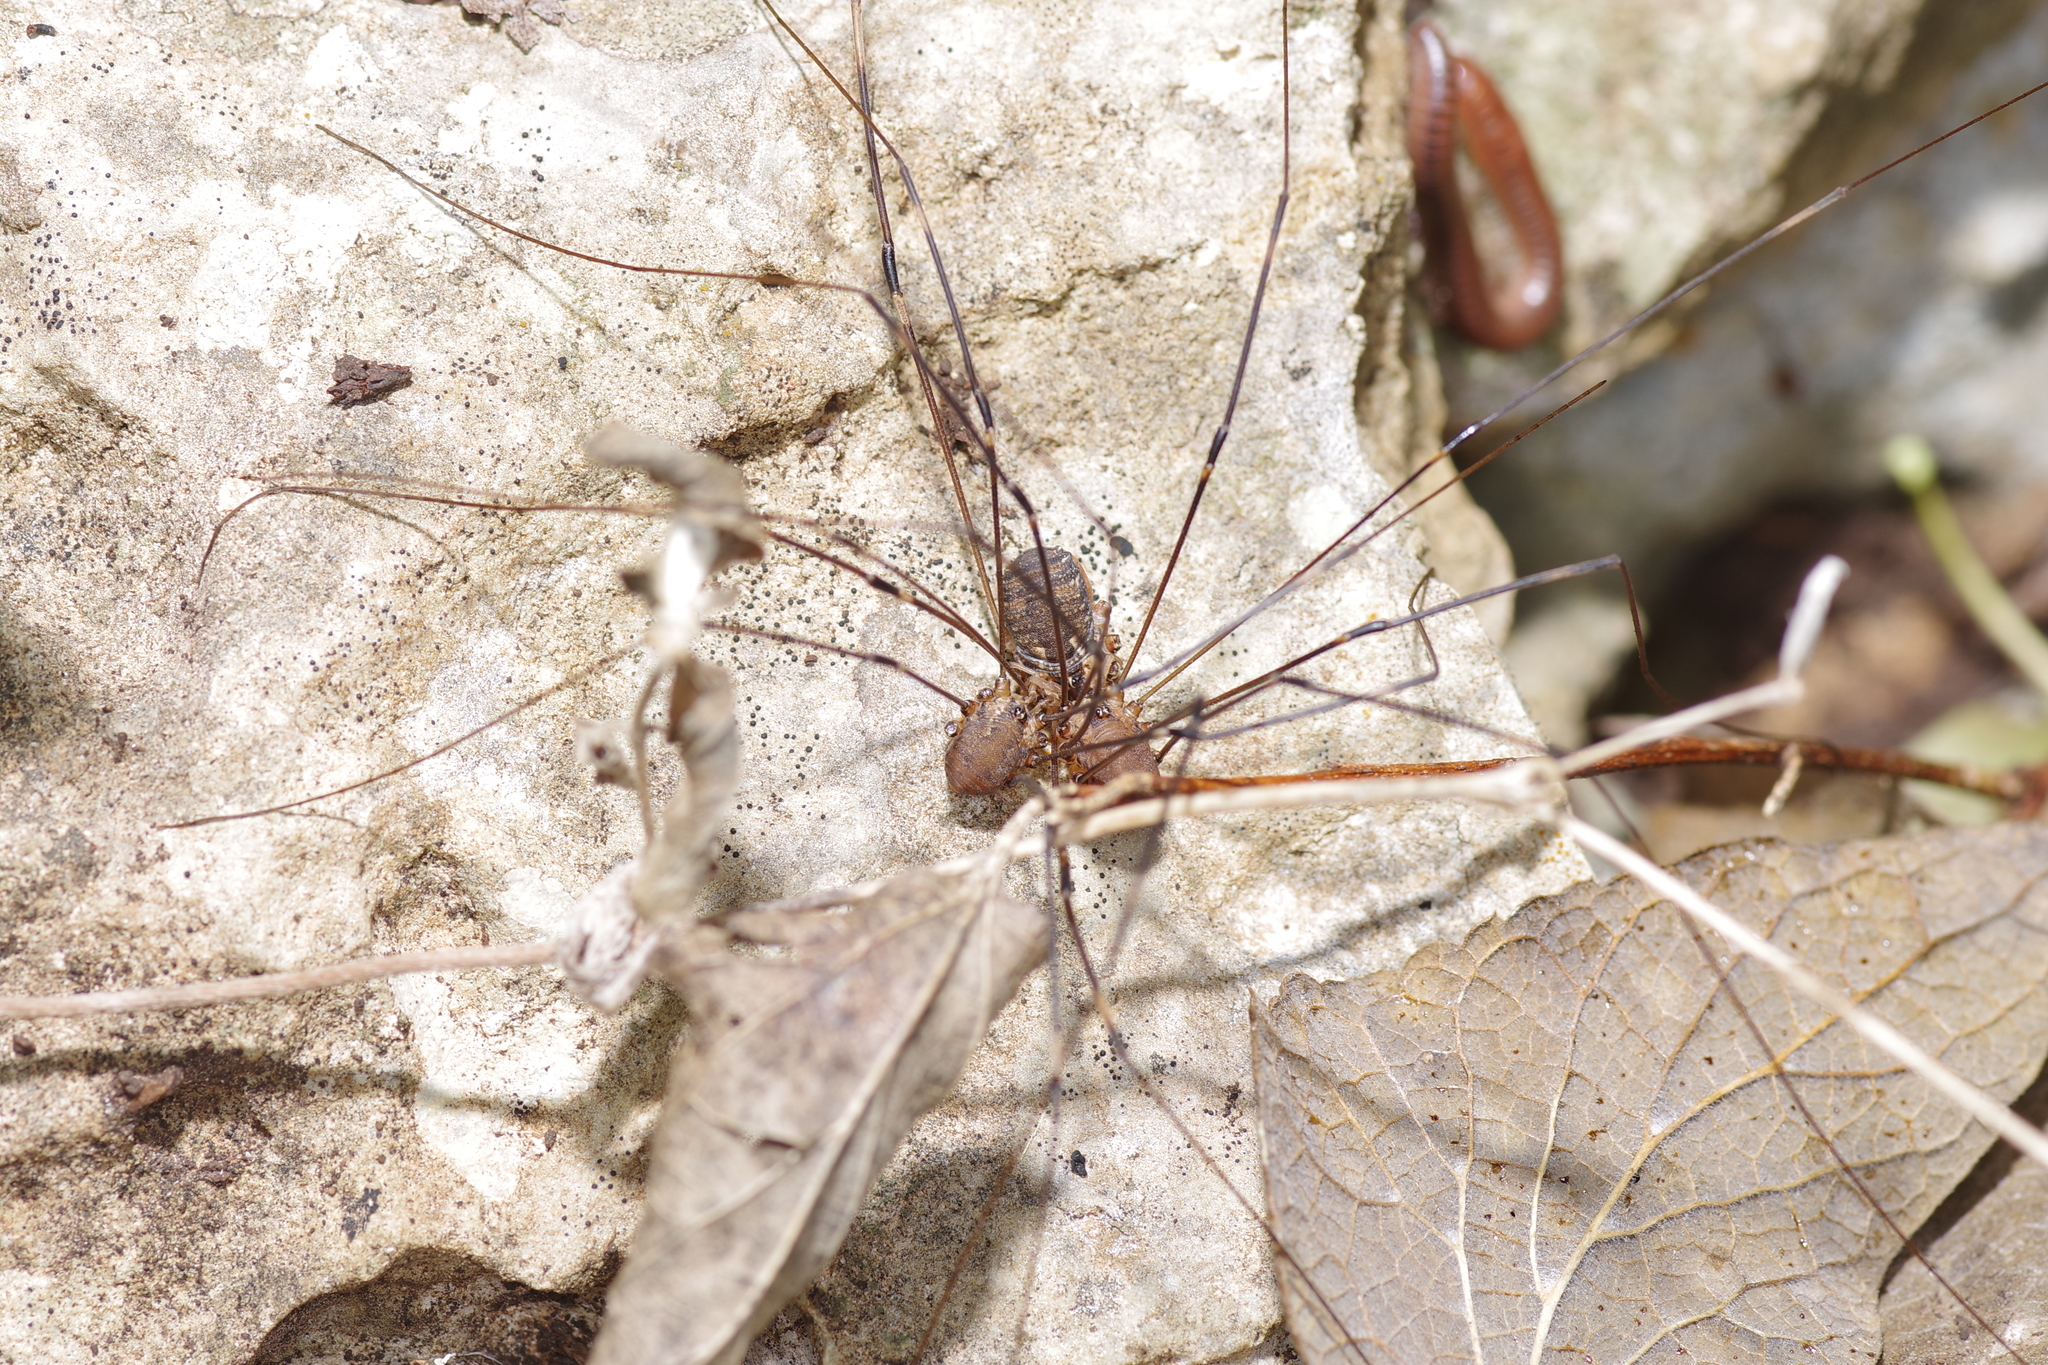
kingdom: Animalia
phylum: Arthropoda
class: Arachnida
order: Opiliones
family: Sclerosomatidae
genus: Leiobunum
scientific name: Leiobunum townsendi
